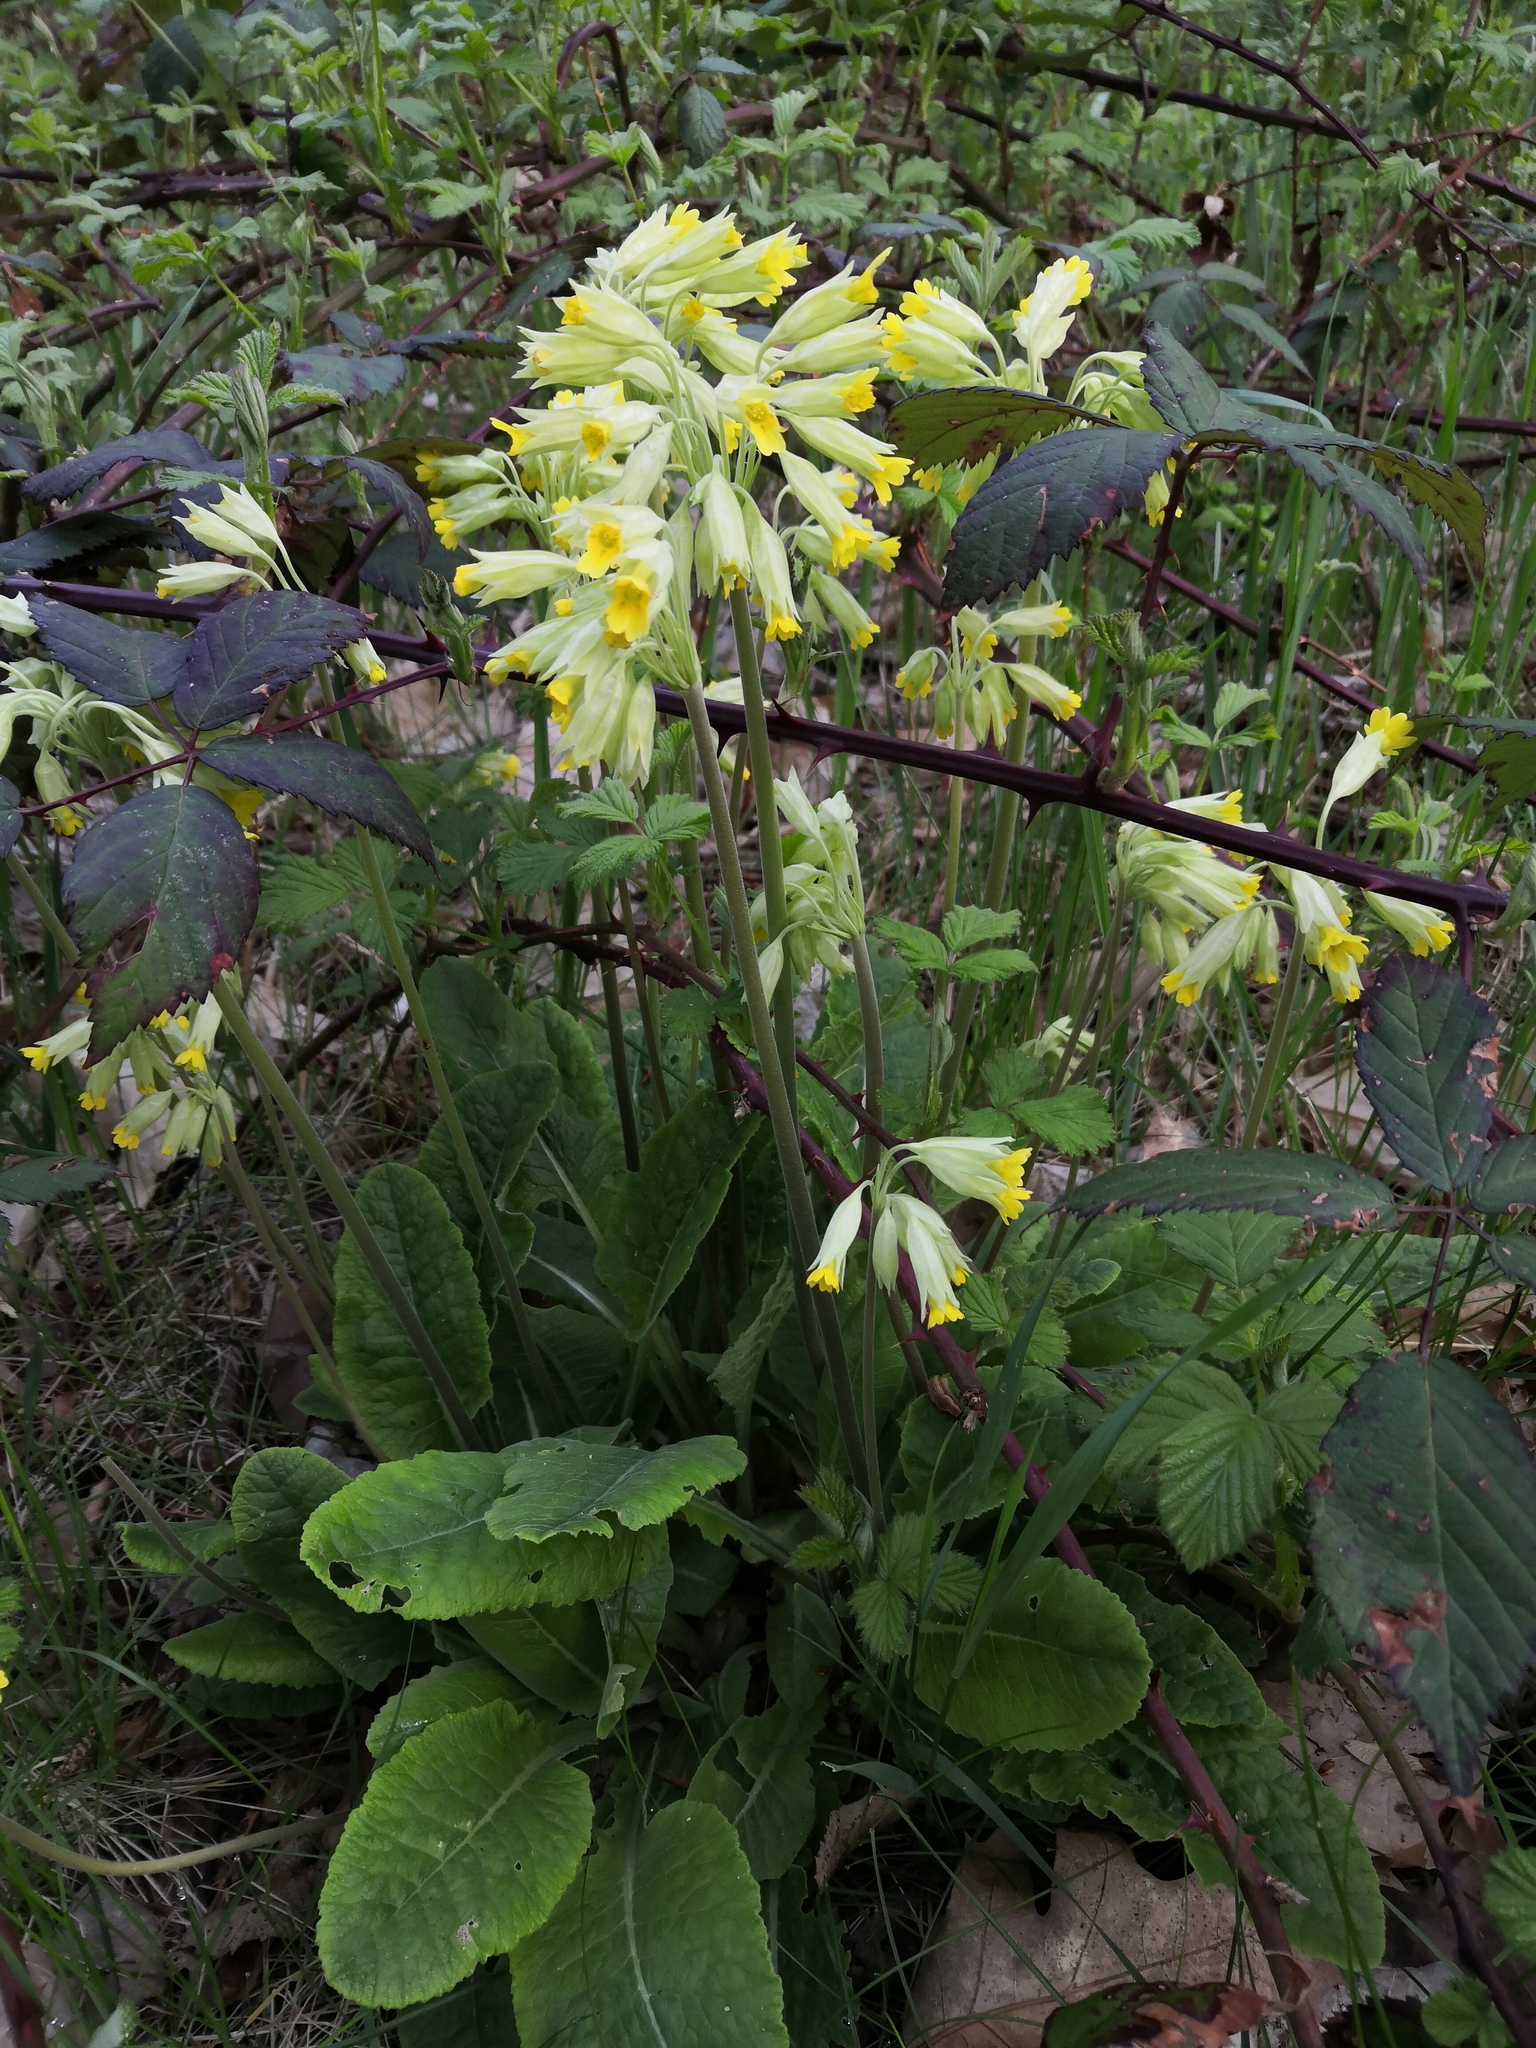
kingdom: Plantae
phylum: Tracheophyta
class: Magnoliopsida
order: Ericales
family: Primulaceae
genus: Primula
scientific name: Primula veris
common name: Cowslip
